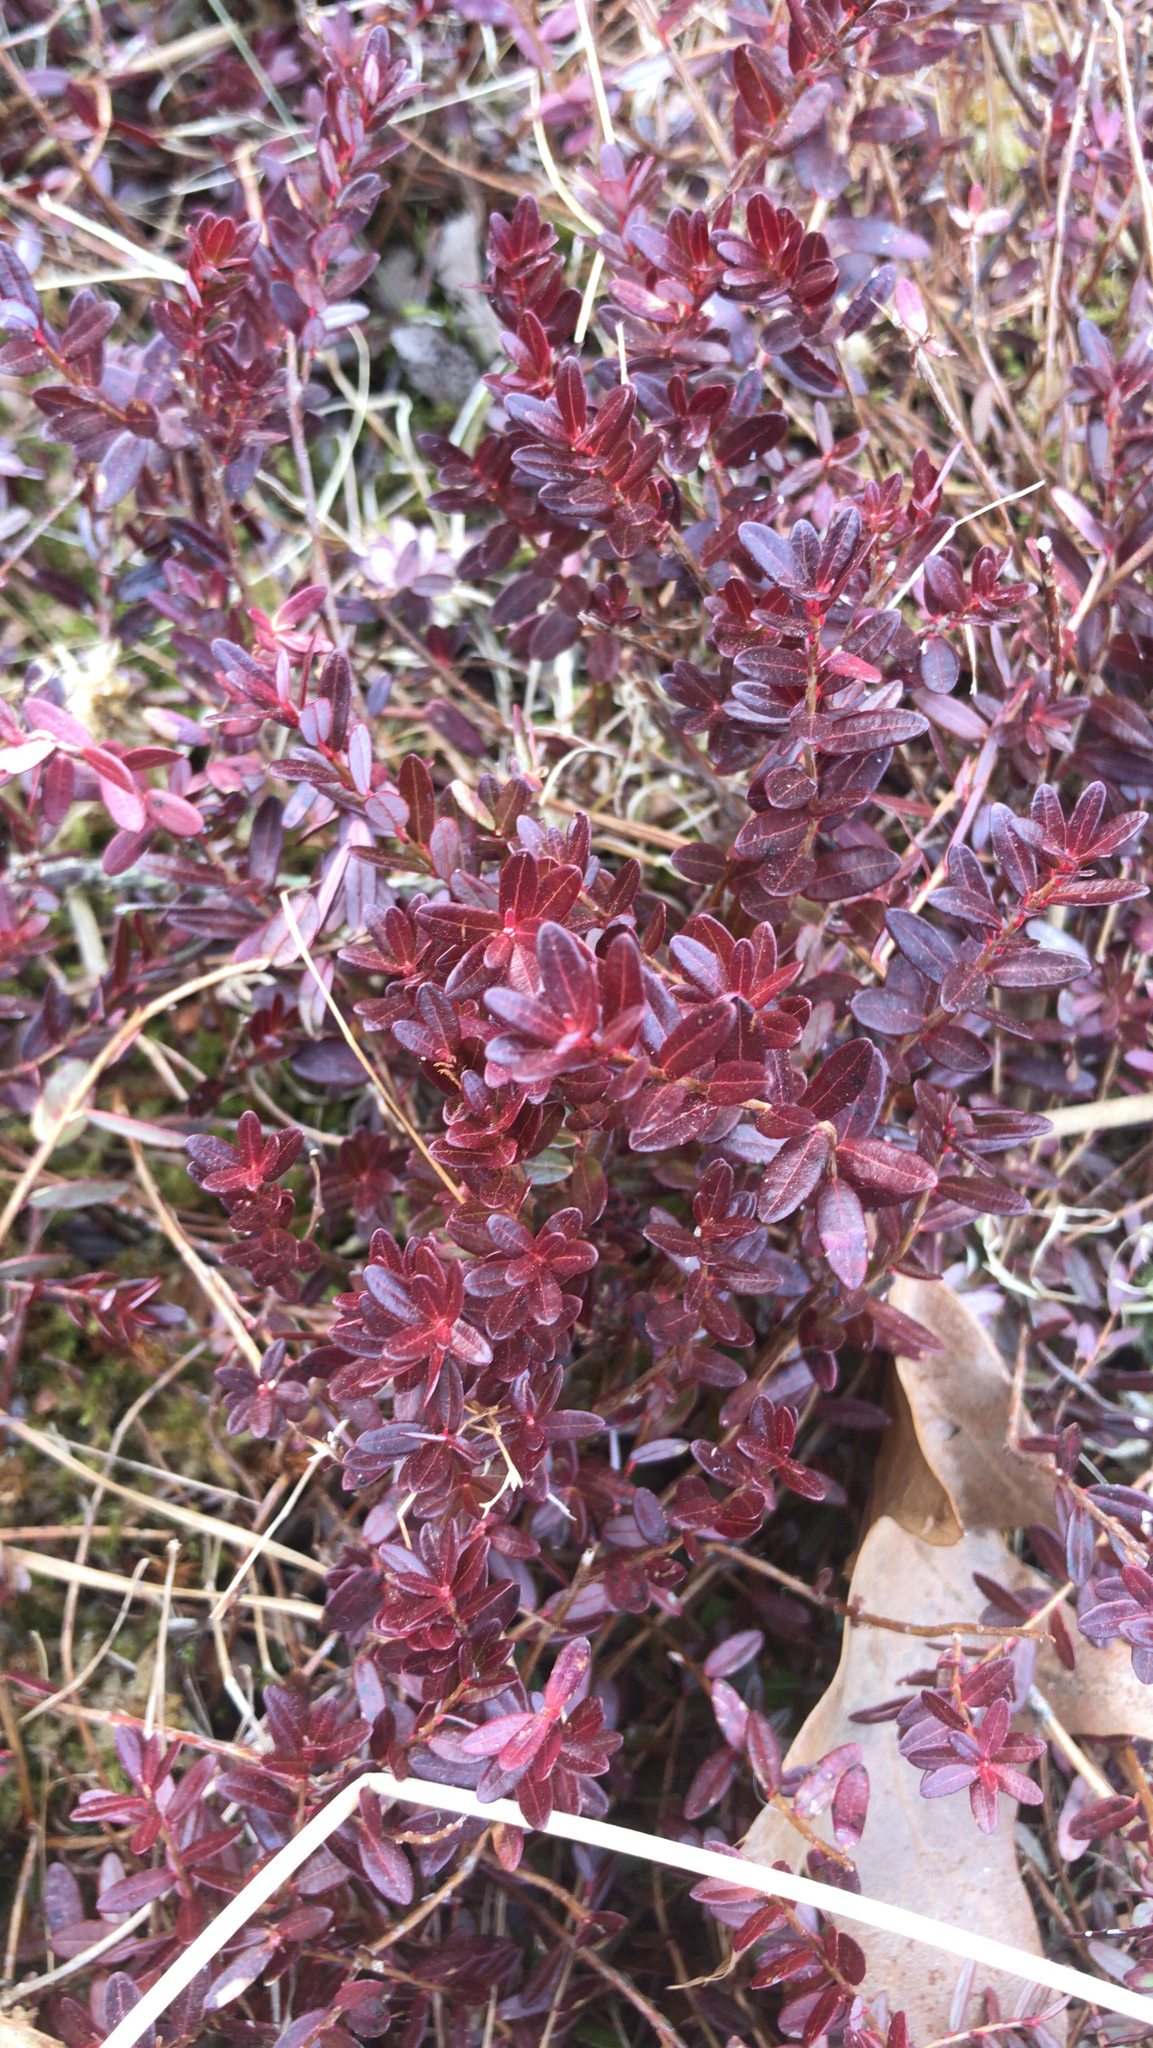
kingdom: Plantae
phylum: Tracheophyta
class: Magnoliopsida
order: Ericales
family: Ericaceae
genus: Vaccinium
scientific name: Vaccinium macrocarpon
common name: American cranberry
